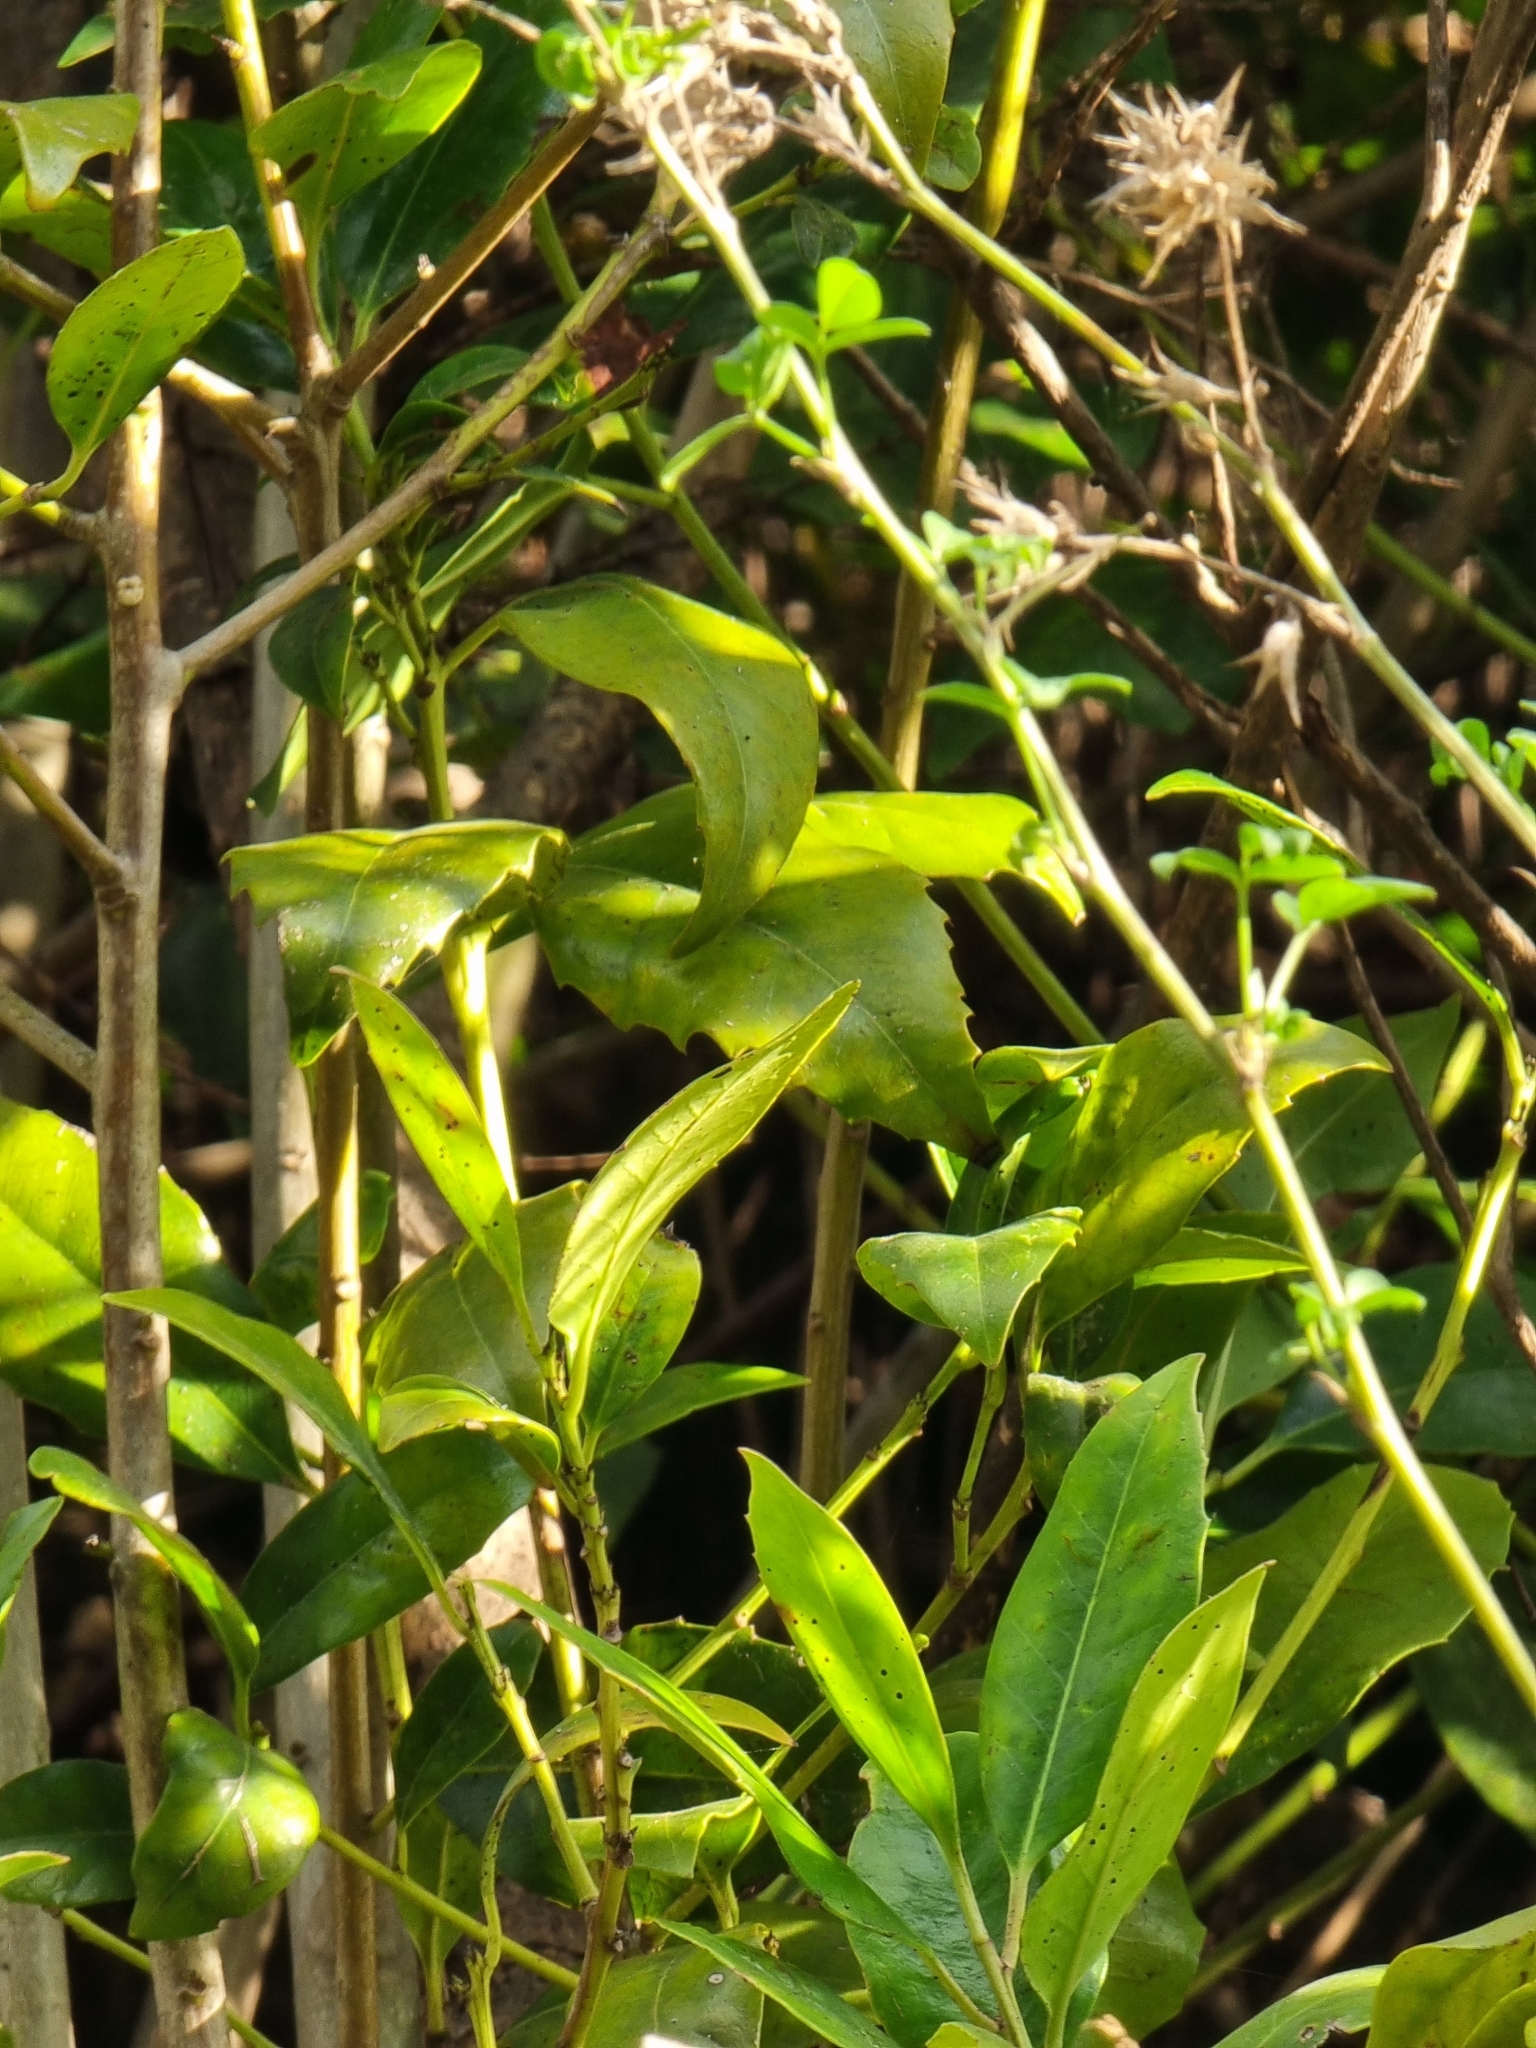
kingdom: Plantae
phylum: Tracheophyta
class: Magnoliopsida
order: Aquifoliales
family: Aquifoliaceae
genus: Ilex
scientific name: Ilex canariensis
